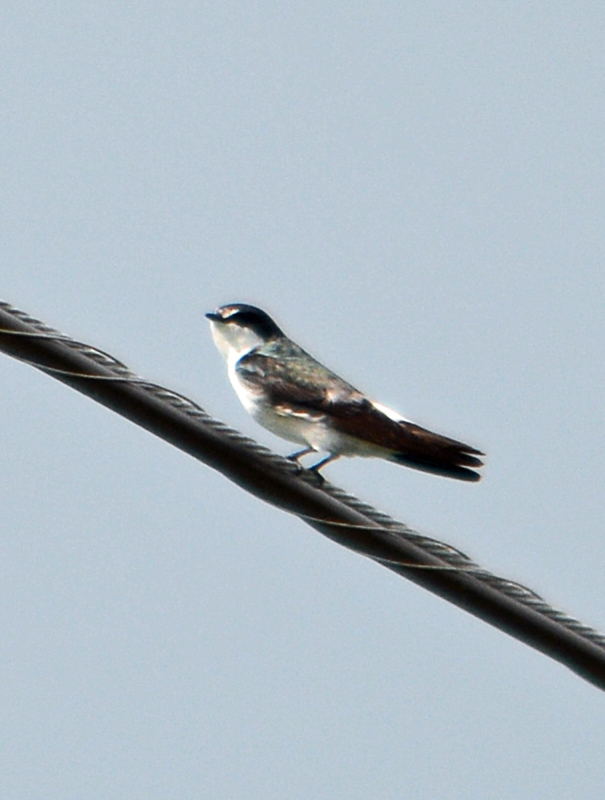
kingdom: Animalia
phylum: Chordata
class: Aves
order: Passeriformes
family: Hirundinidae
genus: Tachycineta
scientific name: Tachycineta albilinea
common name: Mangrove swallow
